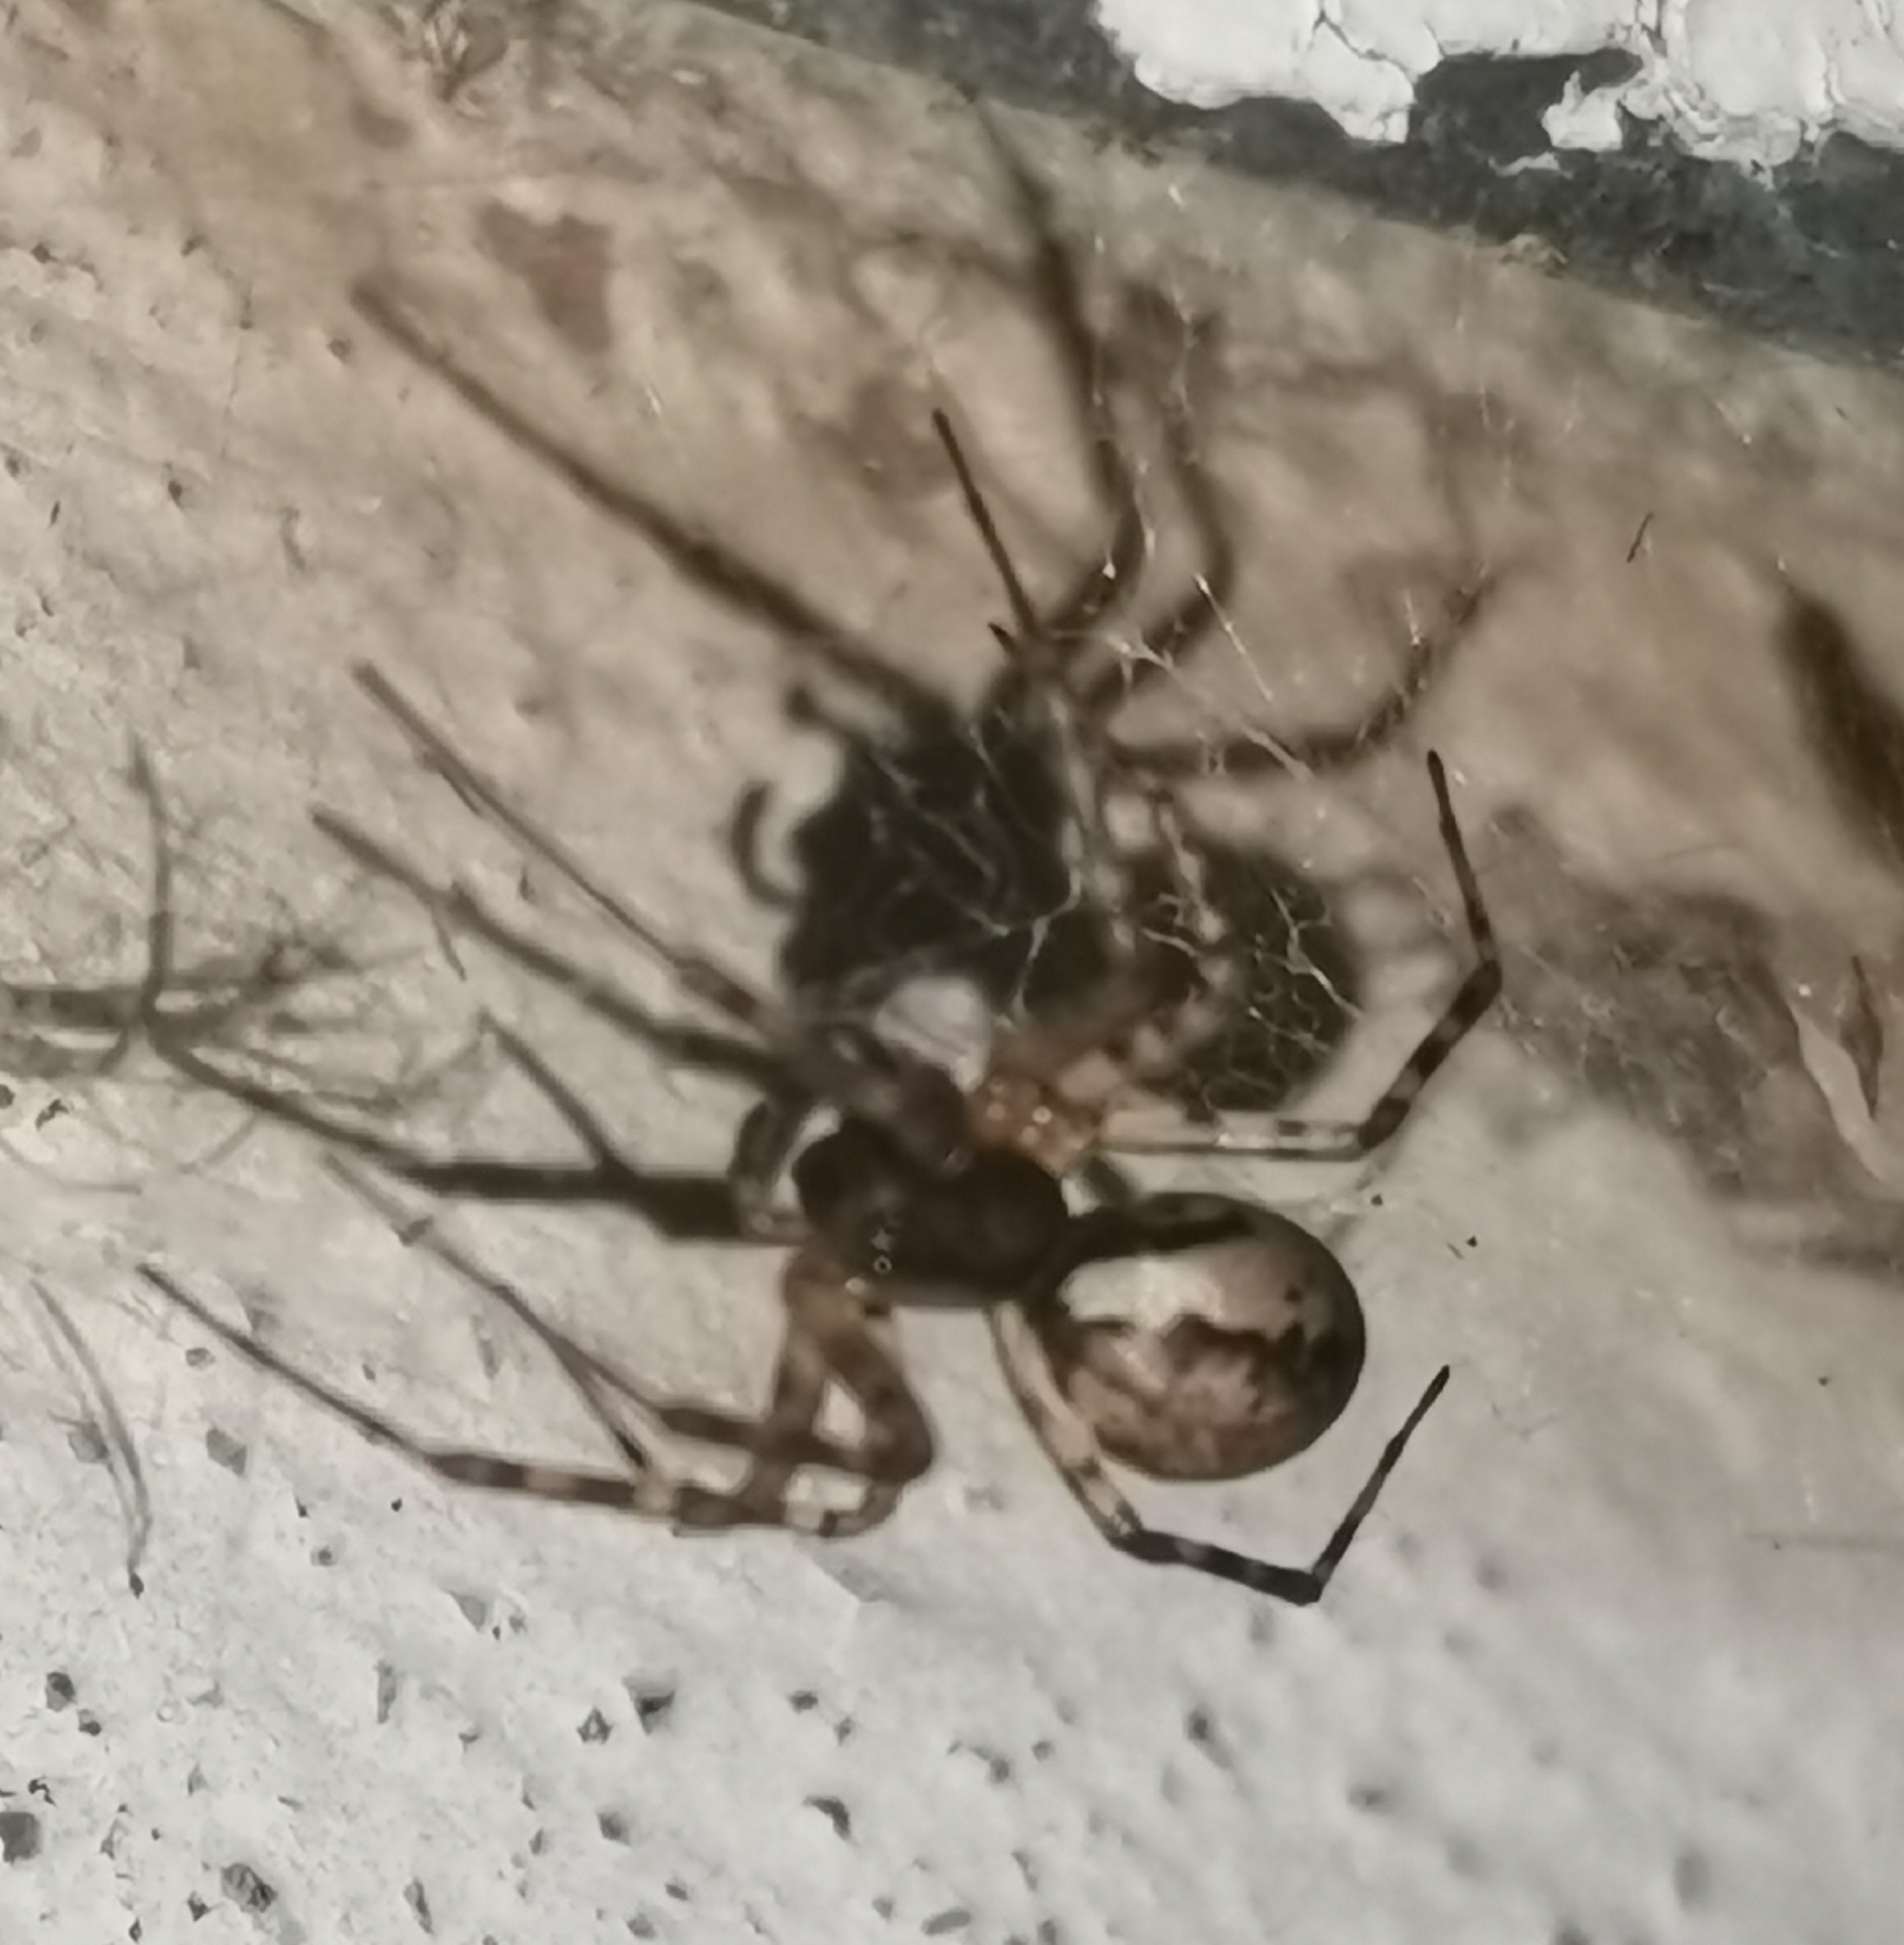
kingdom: Animalia
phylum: Arthropoda
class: Arachnida
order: Araneae
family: Linyphiidae
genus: Neriene
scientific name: Neriene montana
